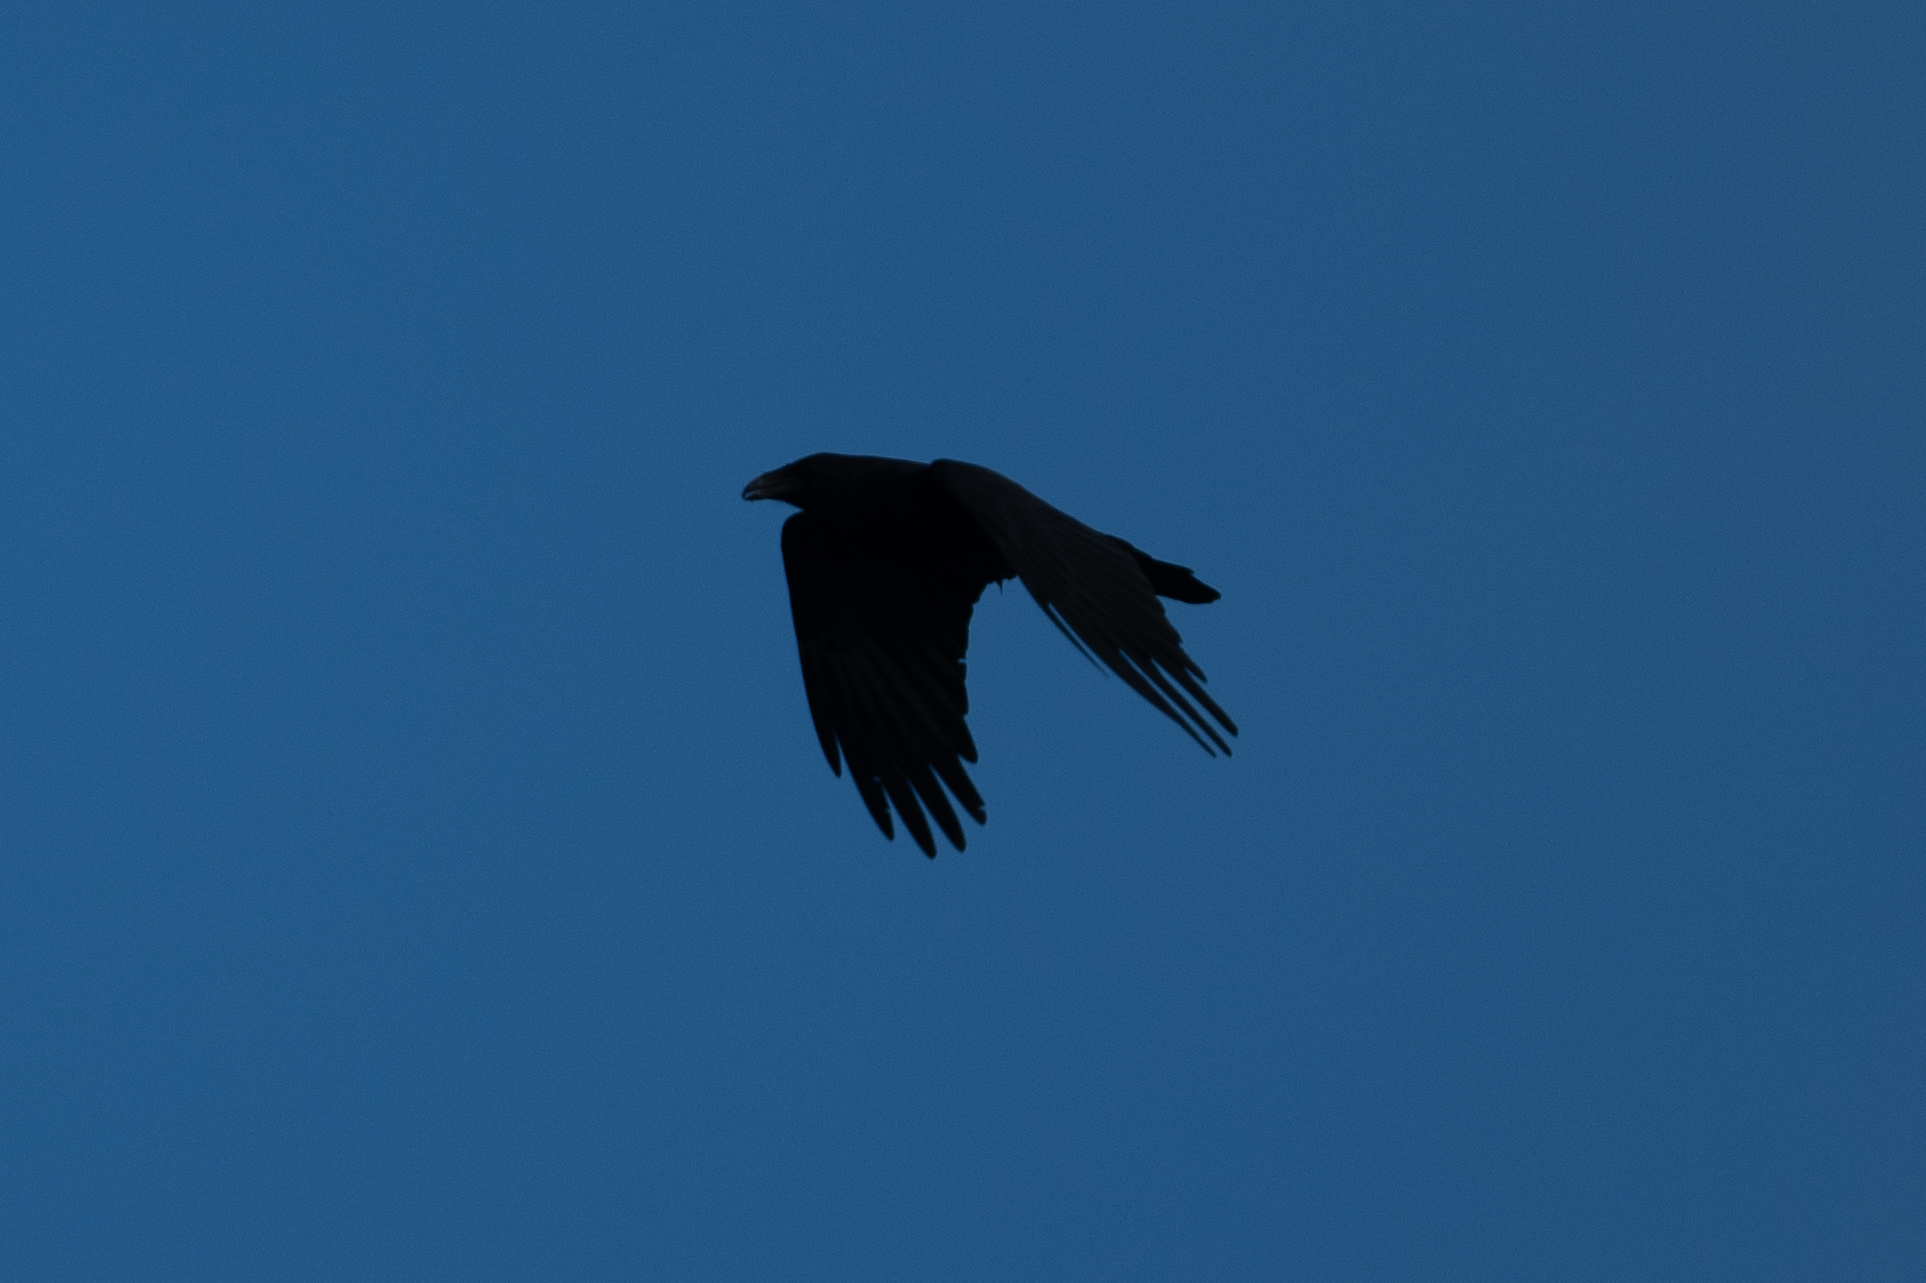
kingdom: Animalia
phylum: Chordata
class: Aves
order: Passeriformes
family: Corvidae
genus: Corvus
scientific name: Corvus corax
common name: Common raven
